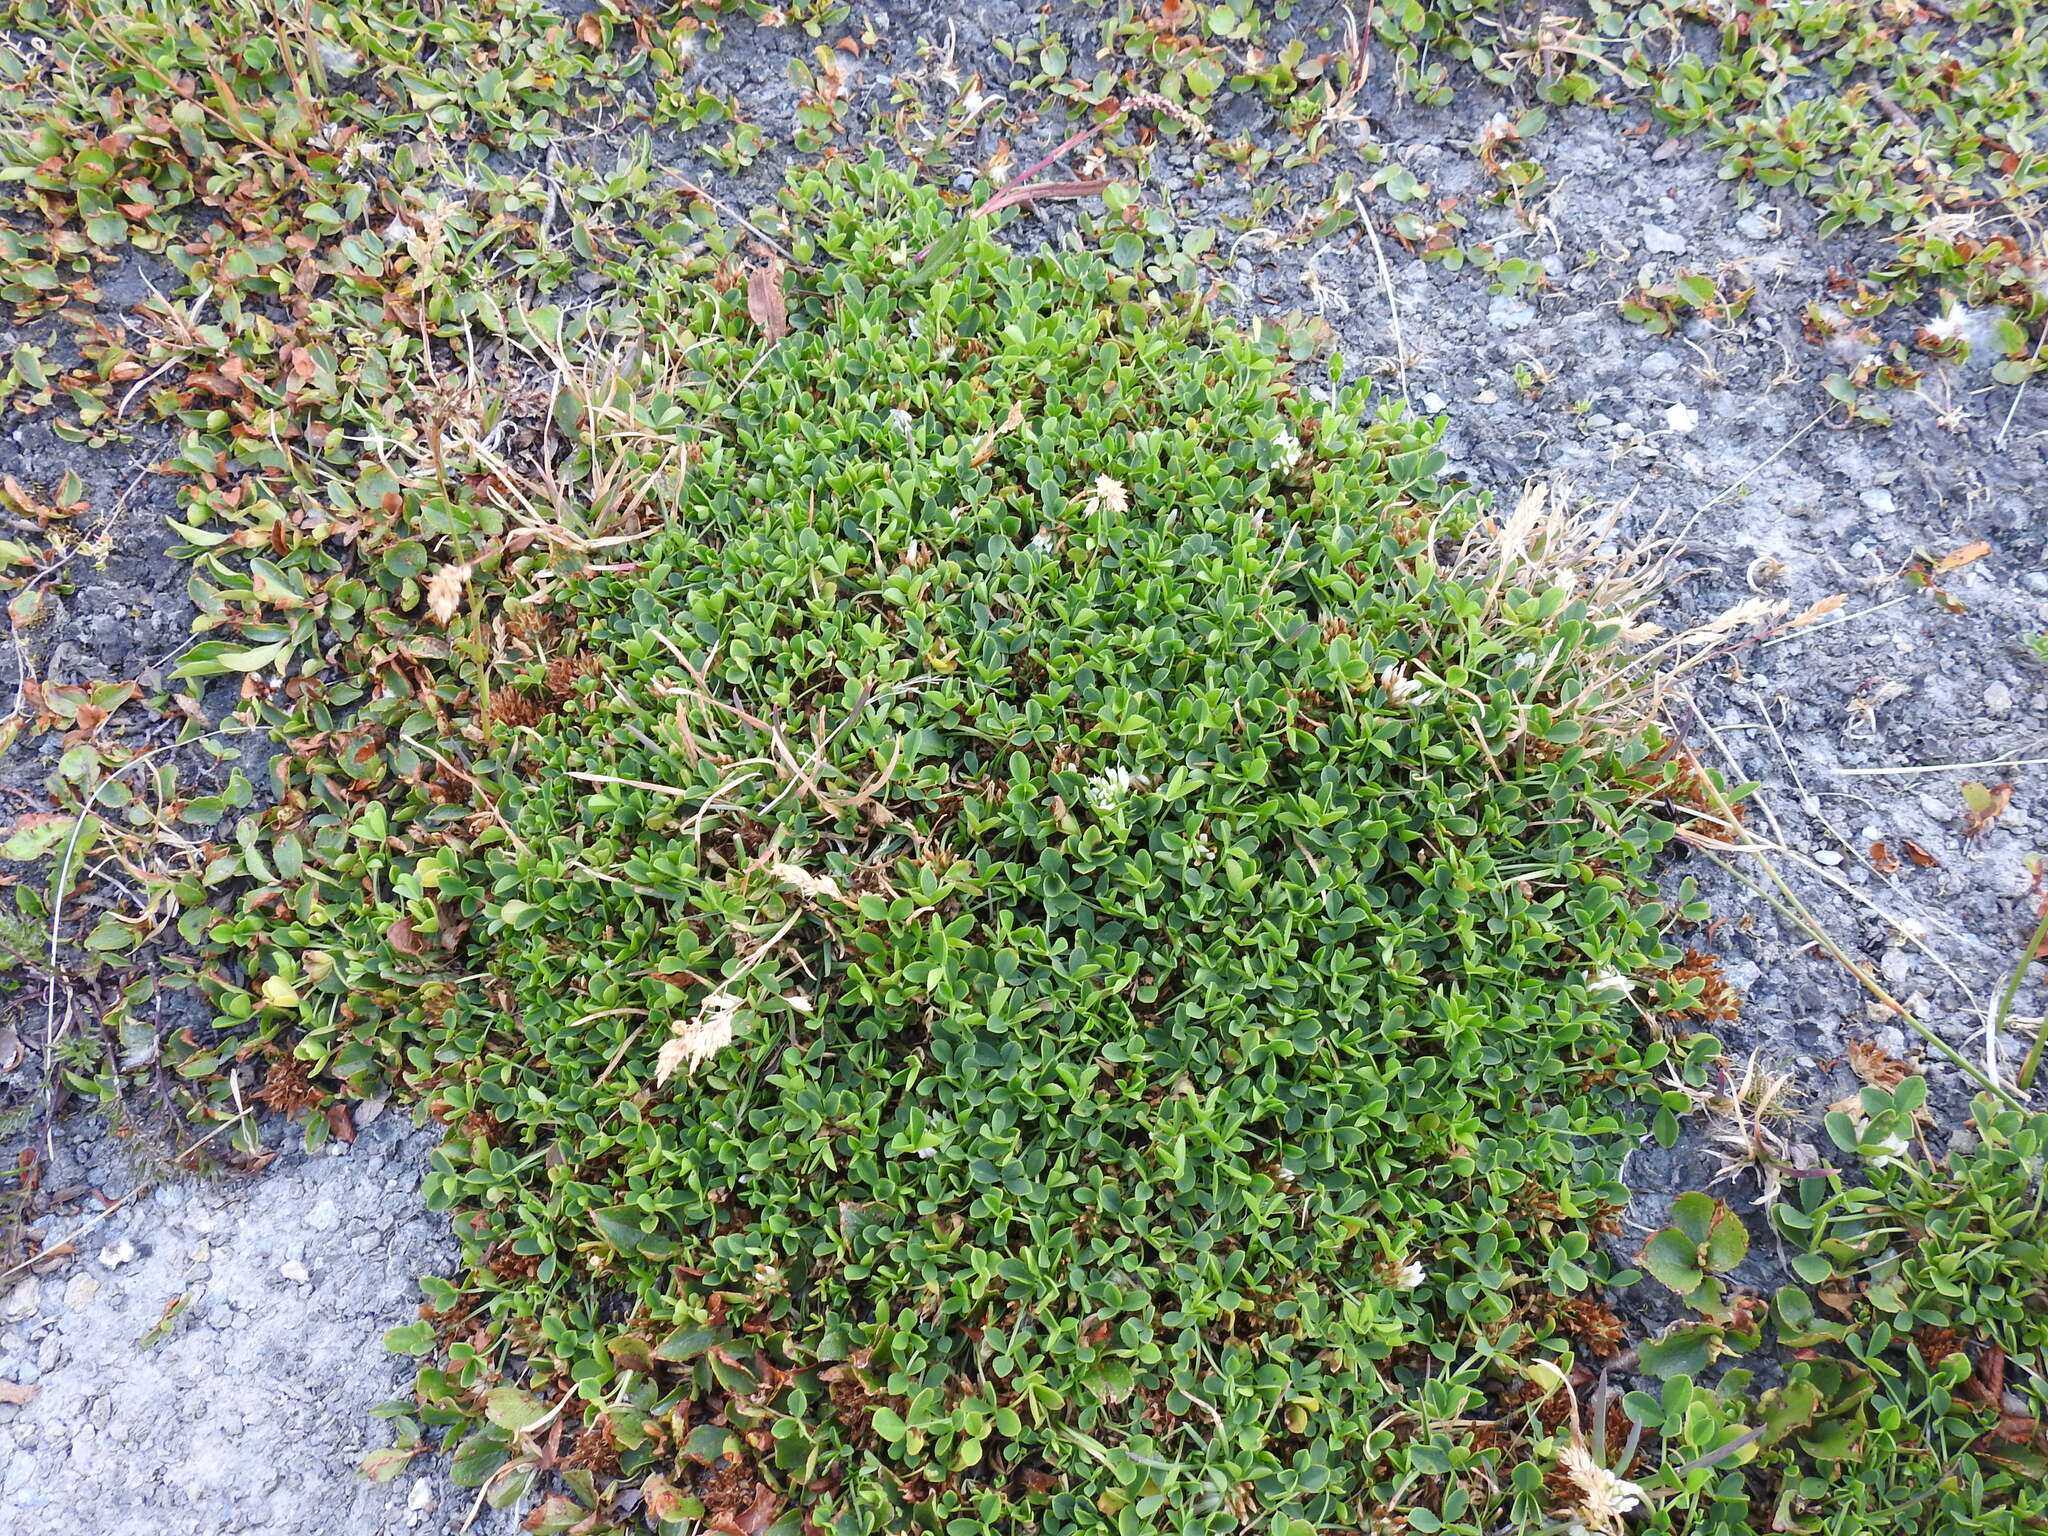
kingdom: Plantae
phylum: Tracheophyta
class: Magnoliopsida
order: Fabales
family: Fabaceae
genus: Trifolium
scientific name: Trifolium thalii
